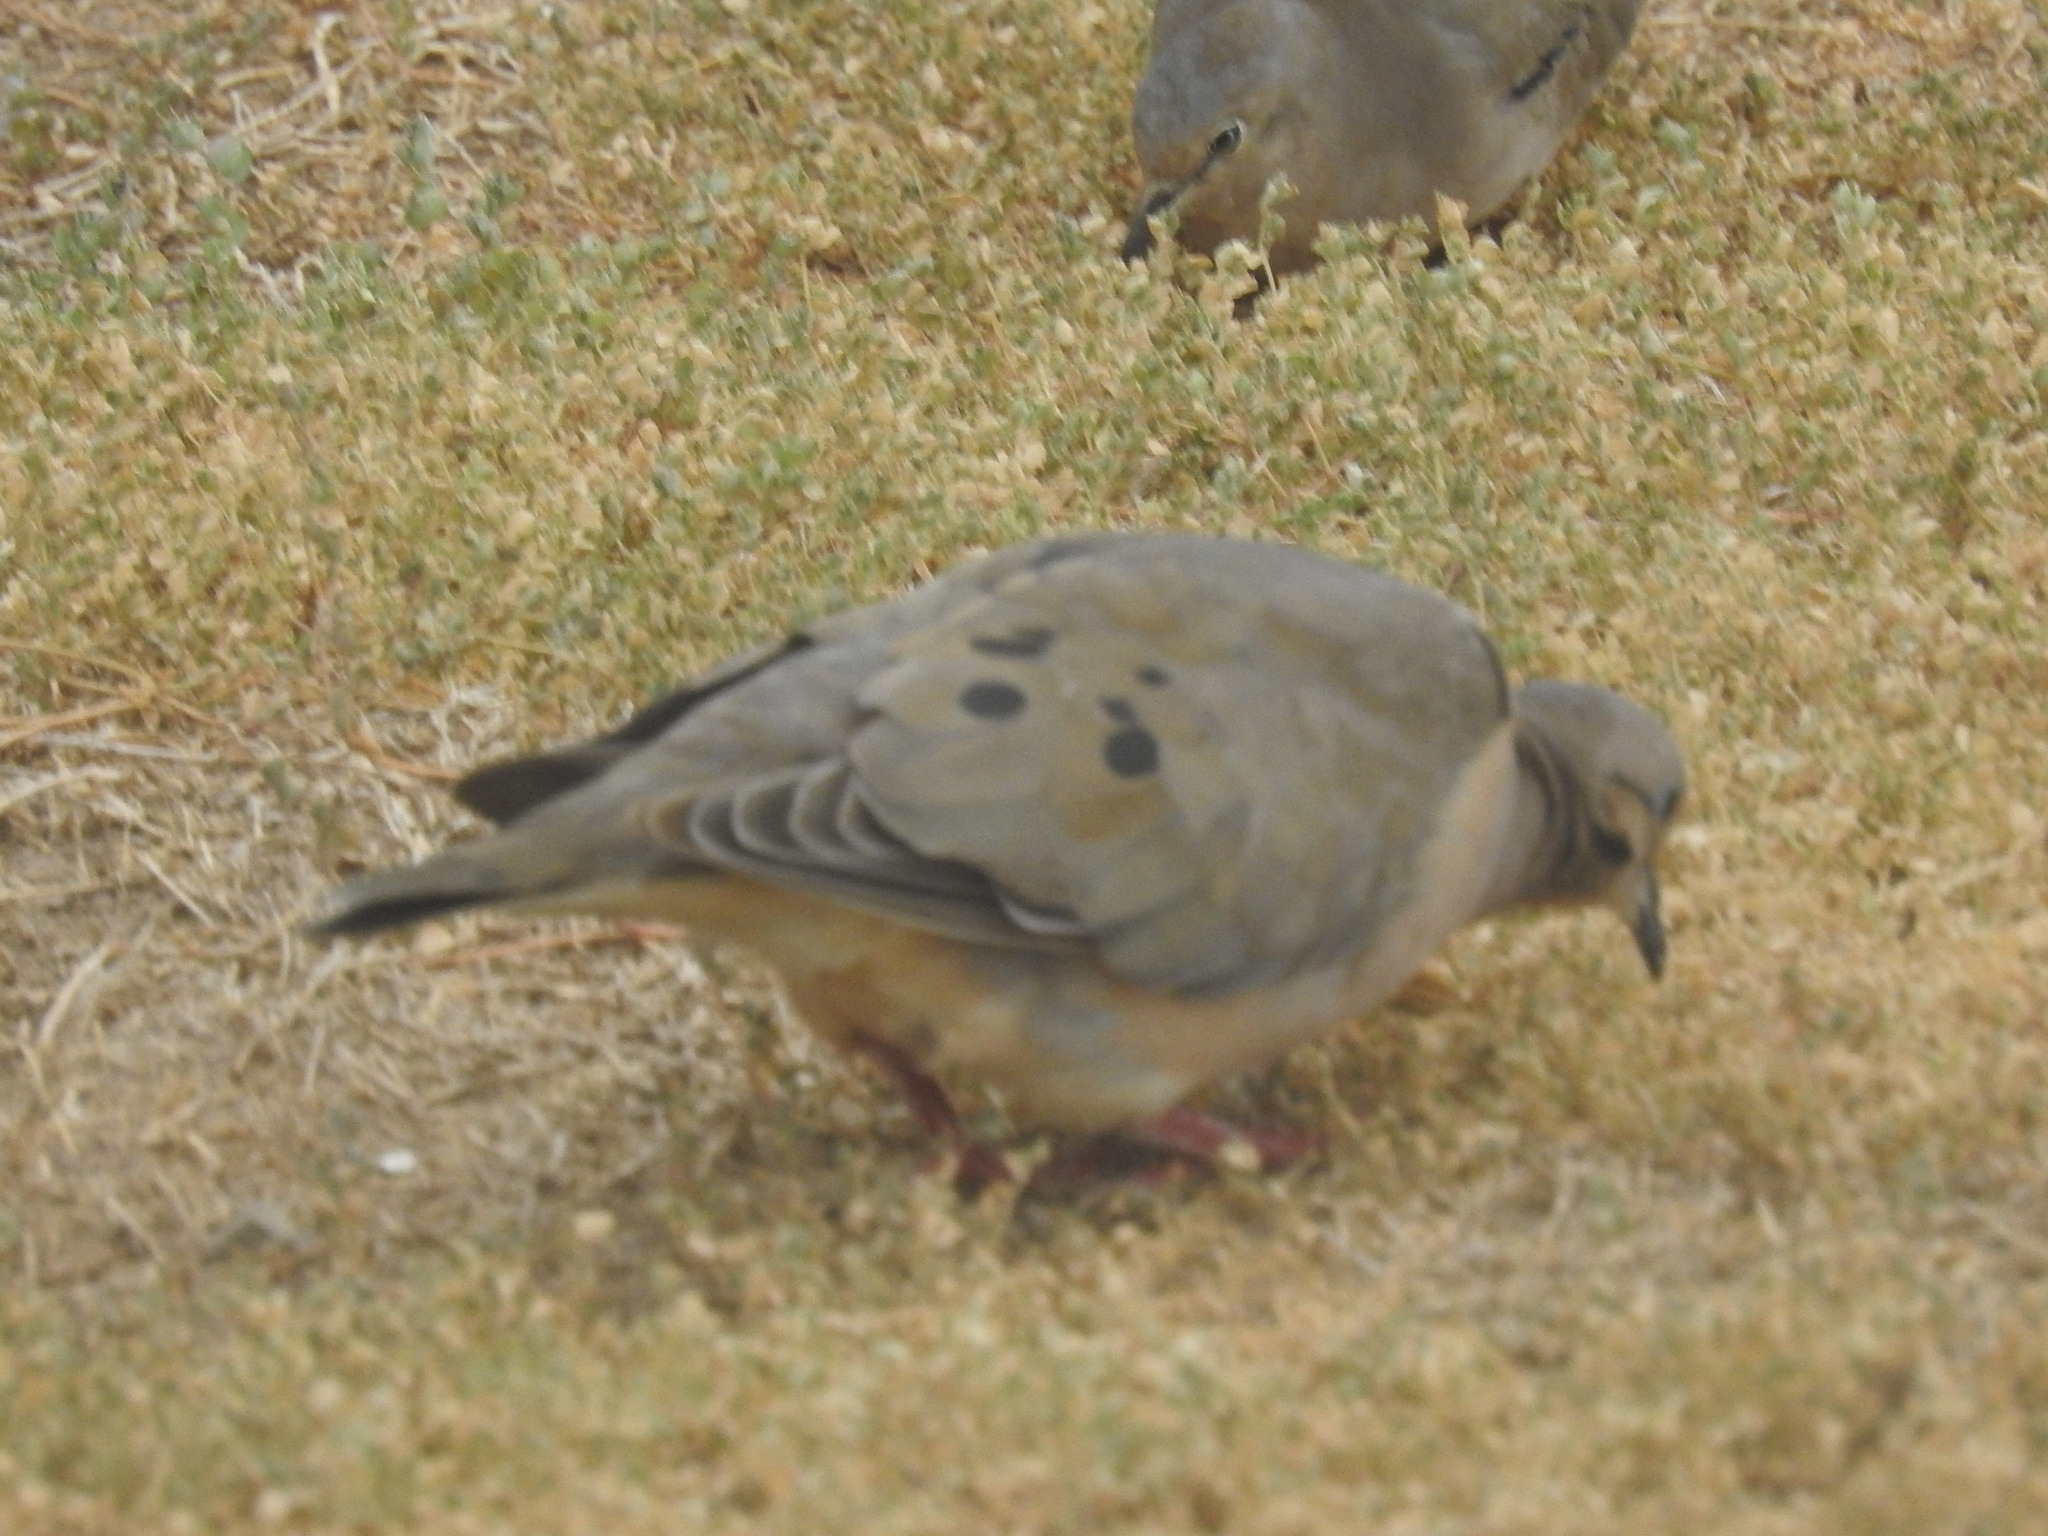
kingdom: Animalia
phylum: Chordata
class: Aves
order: Columbiformes
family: Columbidae
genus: Zenaida
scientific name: Zenaida auriculata
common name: Eared dove
